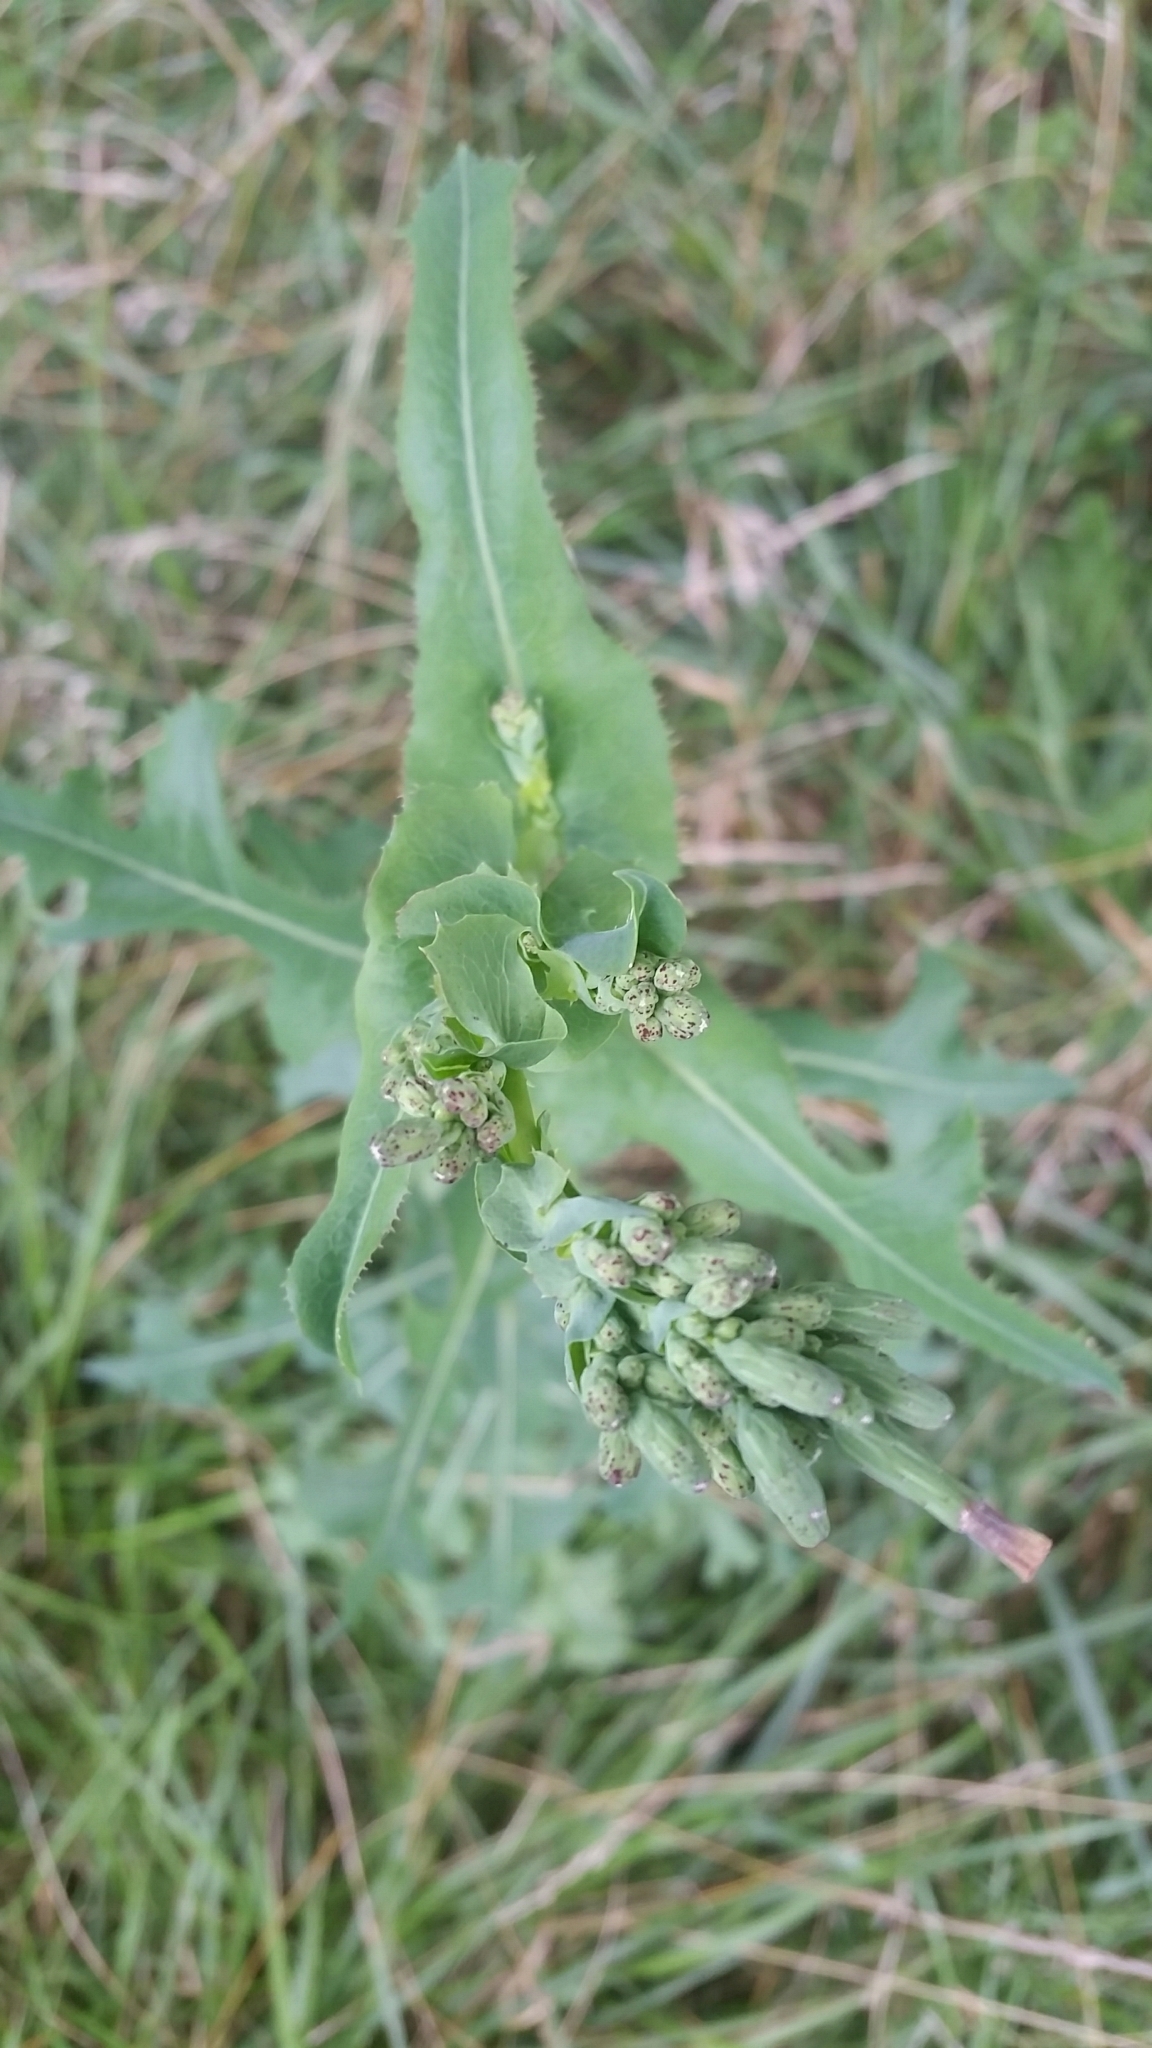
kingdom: Plantae
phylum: Tracheophyta
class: Magnoliopsida
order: Asterales
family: Asteraceae
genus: Lactuca
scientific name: Lactuca serriola
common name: Prickly lettuce
